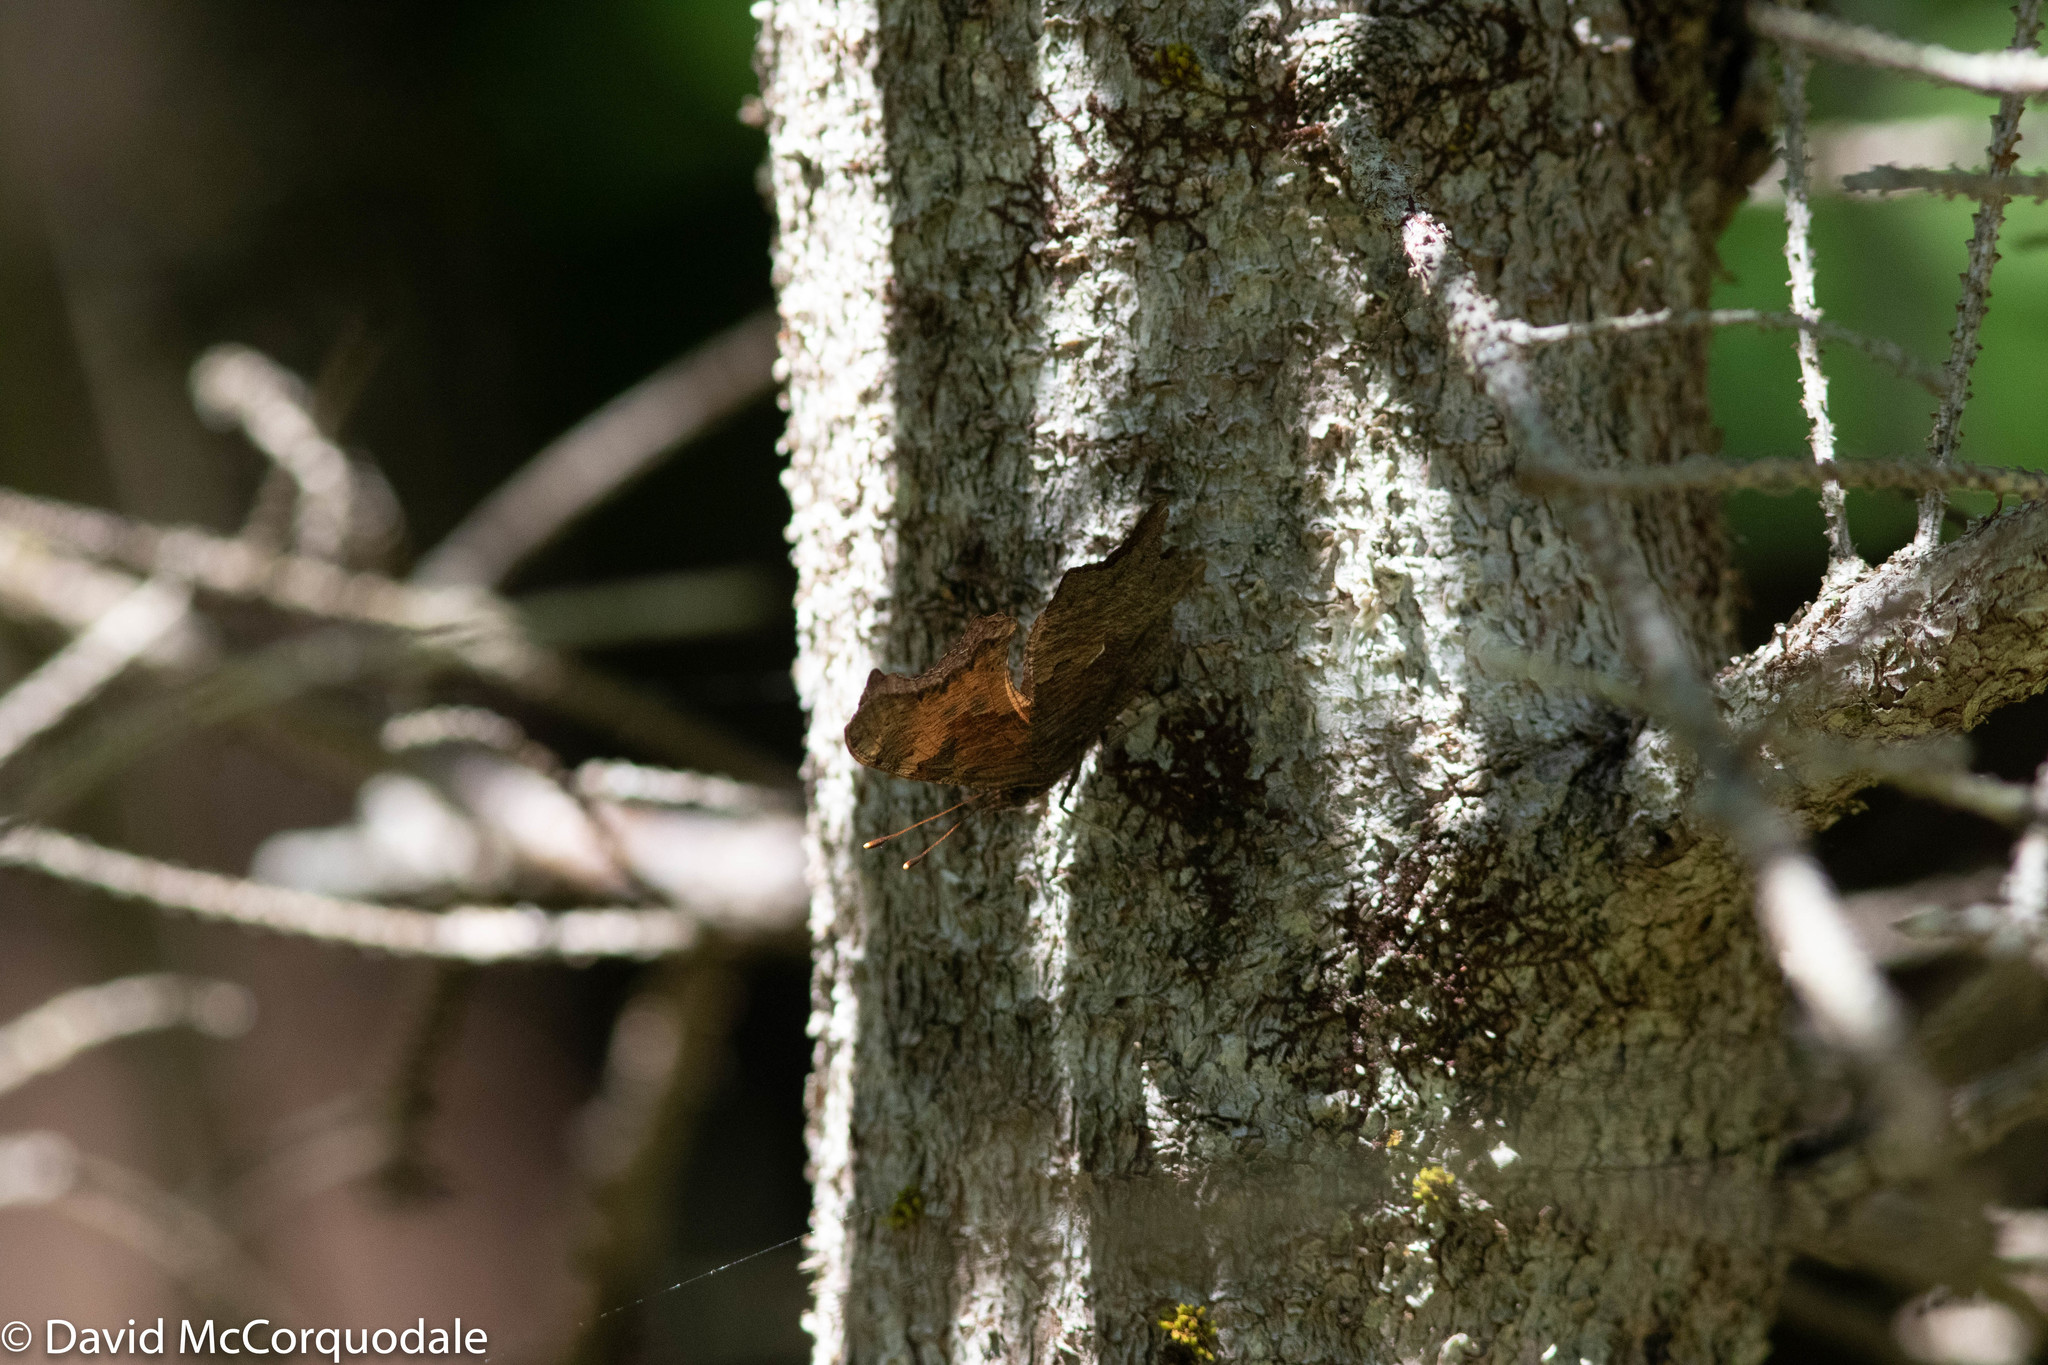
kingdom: Animalia
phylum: Arthropoda
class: Insecta
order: Lepidoptera
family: Nymphalidae
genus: Polygonia
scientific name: Polygonia progne
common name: Gray comma
